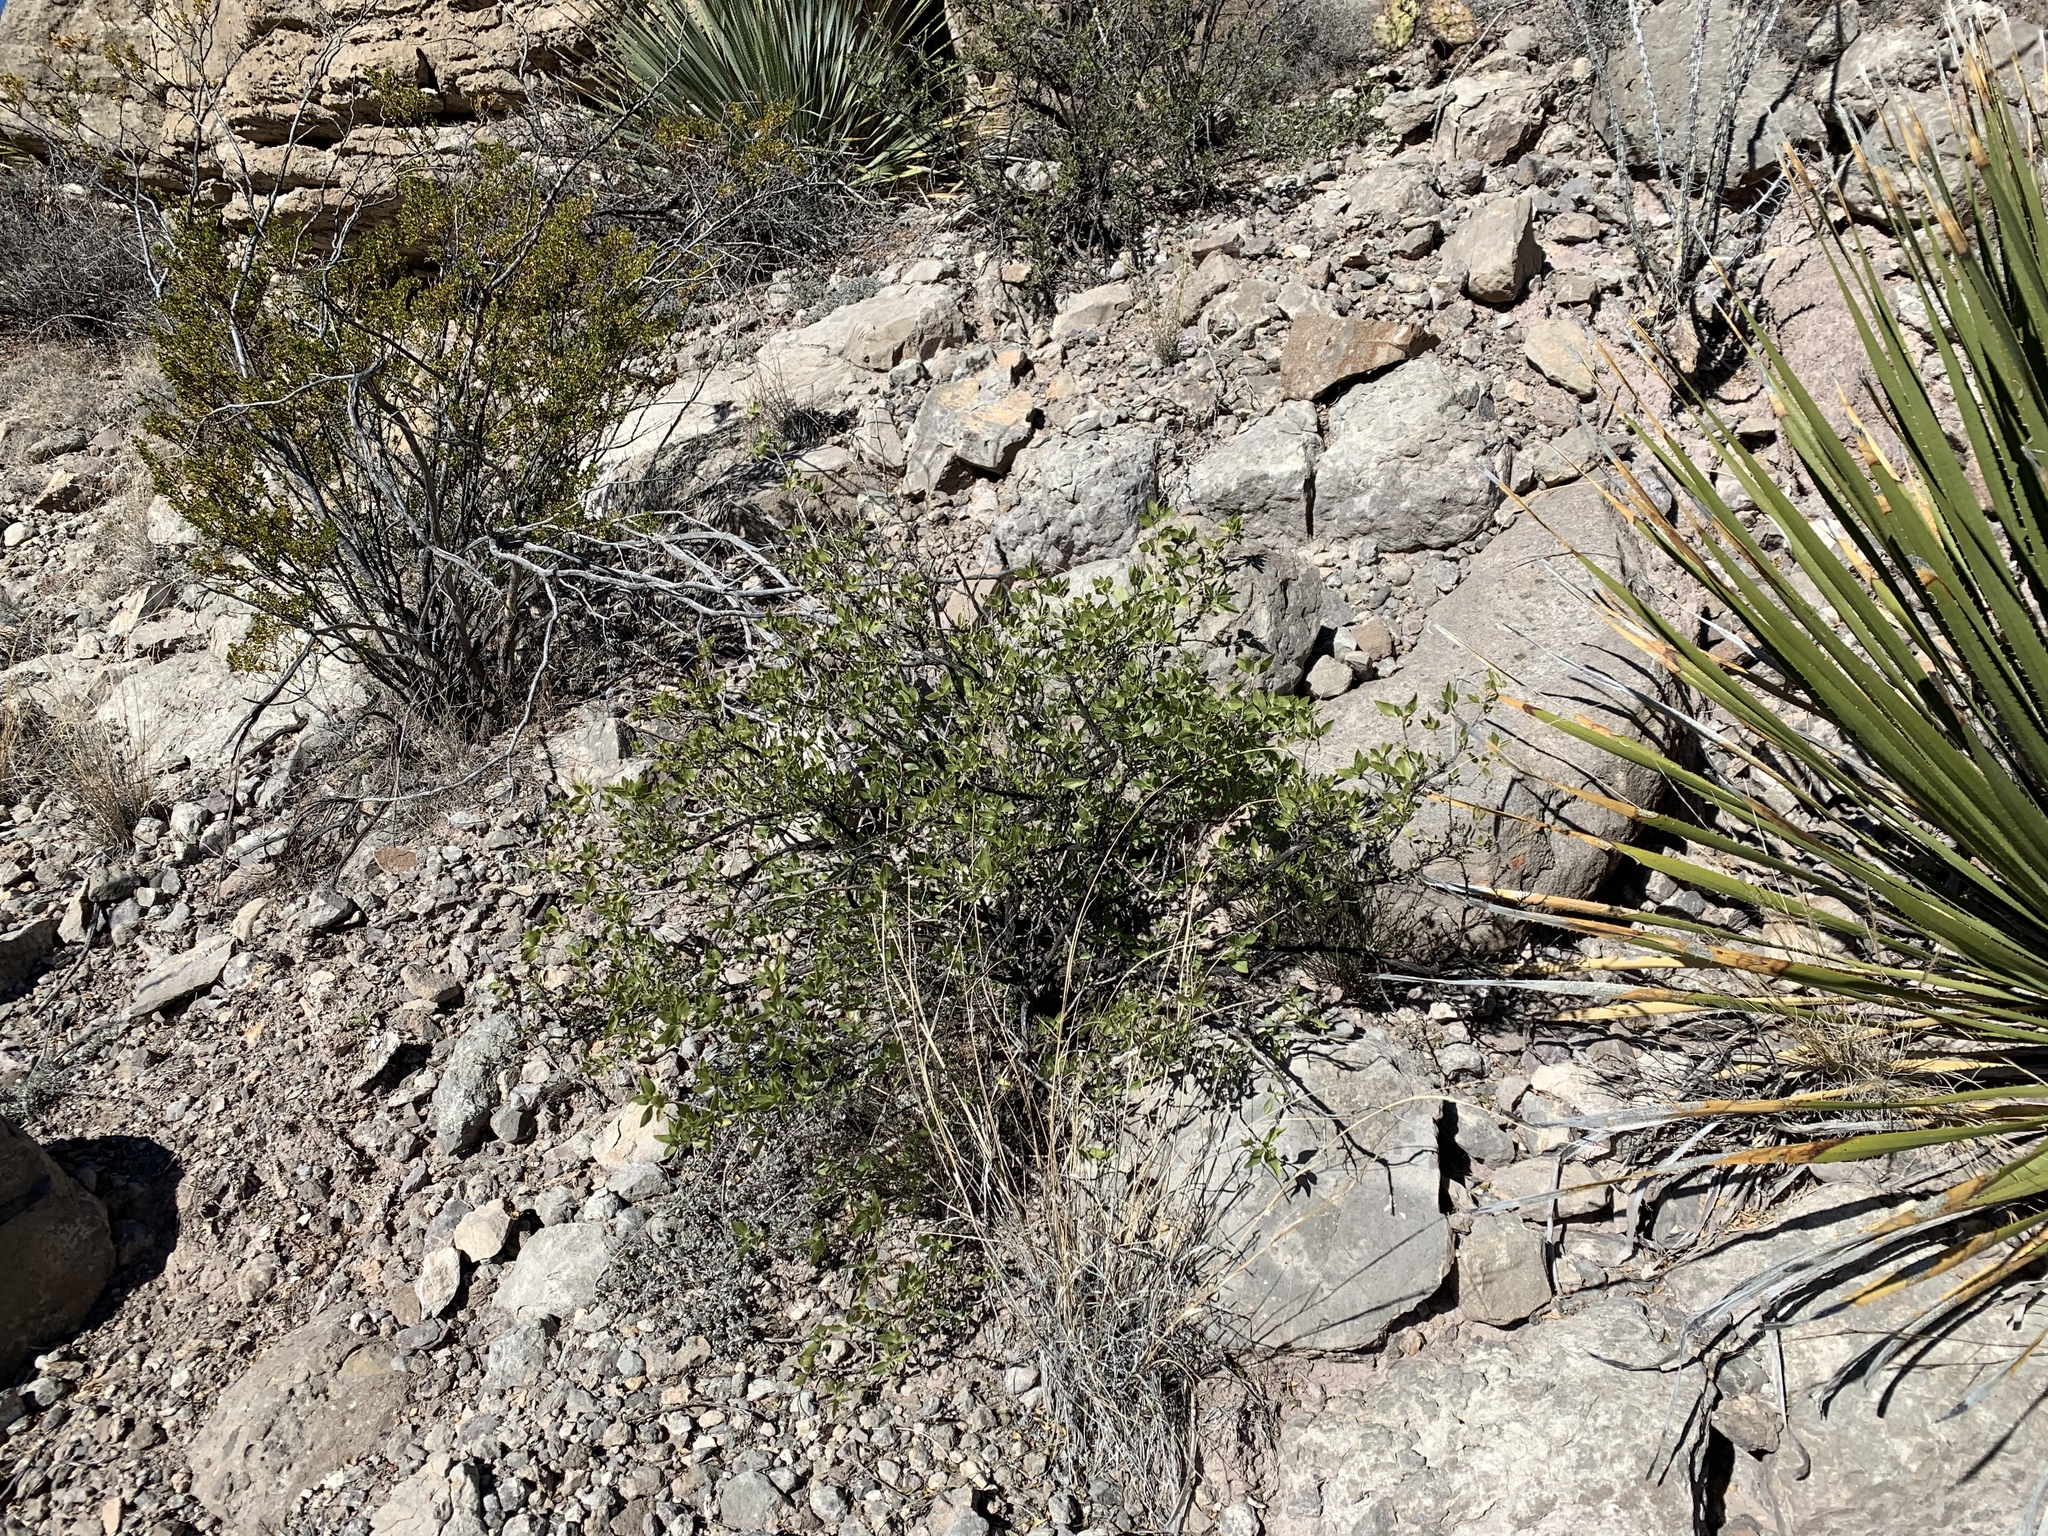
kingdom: Plantae
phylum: Tracheophyta
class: Magnoliopsida
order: Asterales
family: Asteraceae
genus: Flourensia
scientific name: Flourensia cernua
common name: Varnishbush
